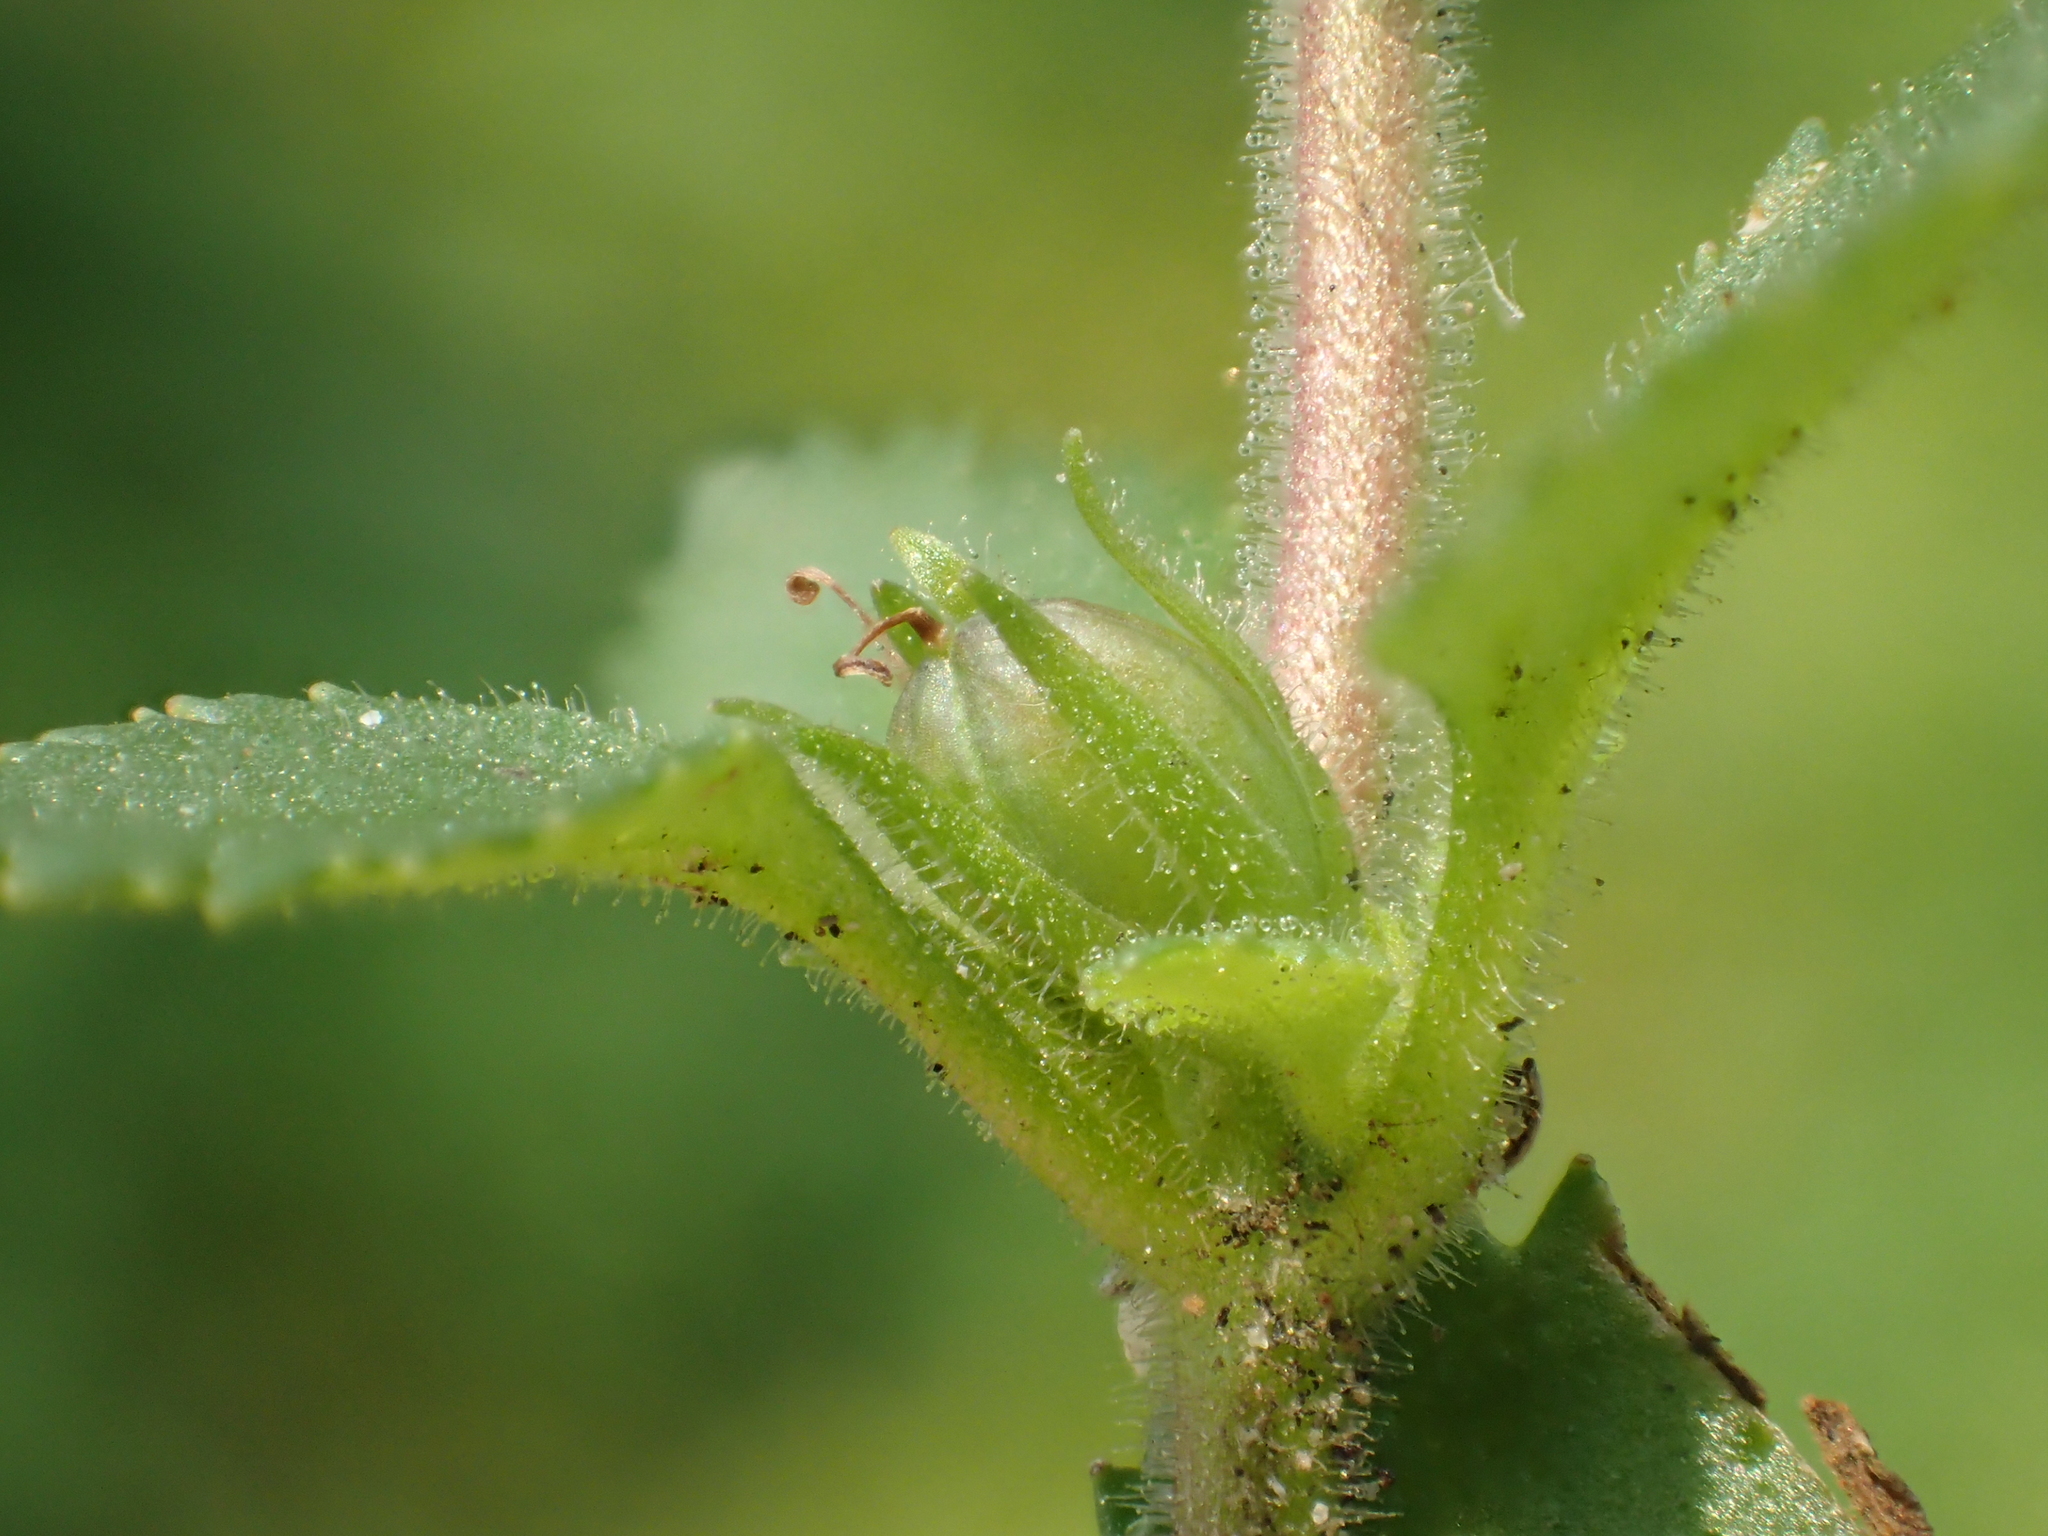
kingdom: Plantae
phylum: Tracheophyta
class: Magnoliopsida
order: Lamiales
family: Plantaginaceae
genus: Stemodia
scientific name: Stemodia verticillata
